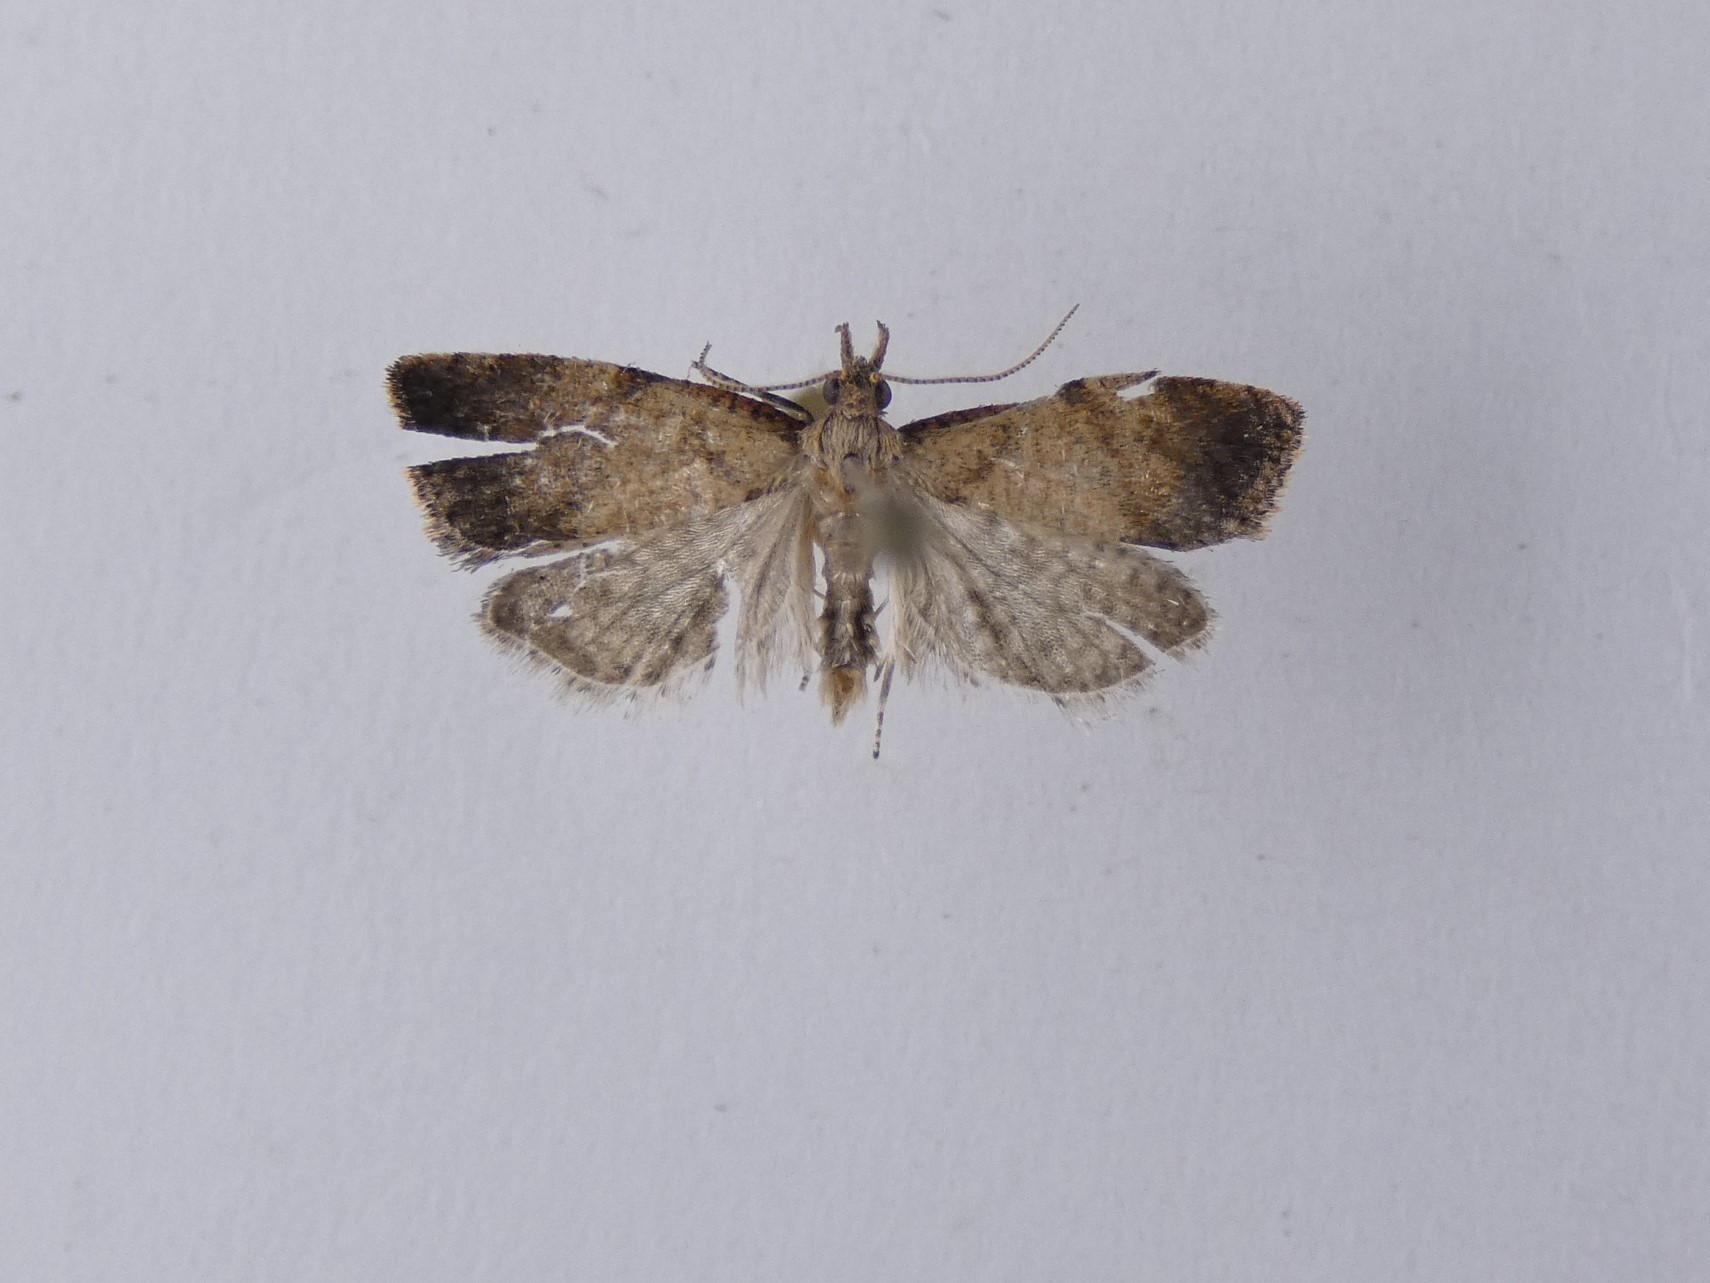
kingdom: Animalia
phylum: Arthropoda
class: Insecta
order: Lepidoptera
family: Tortricidae
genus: Catamacta
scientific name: Catamacta gavisana
